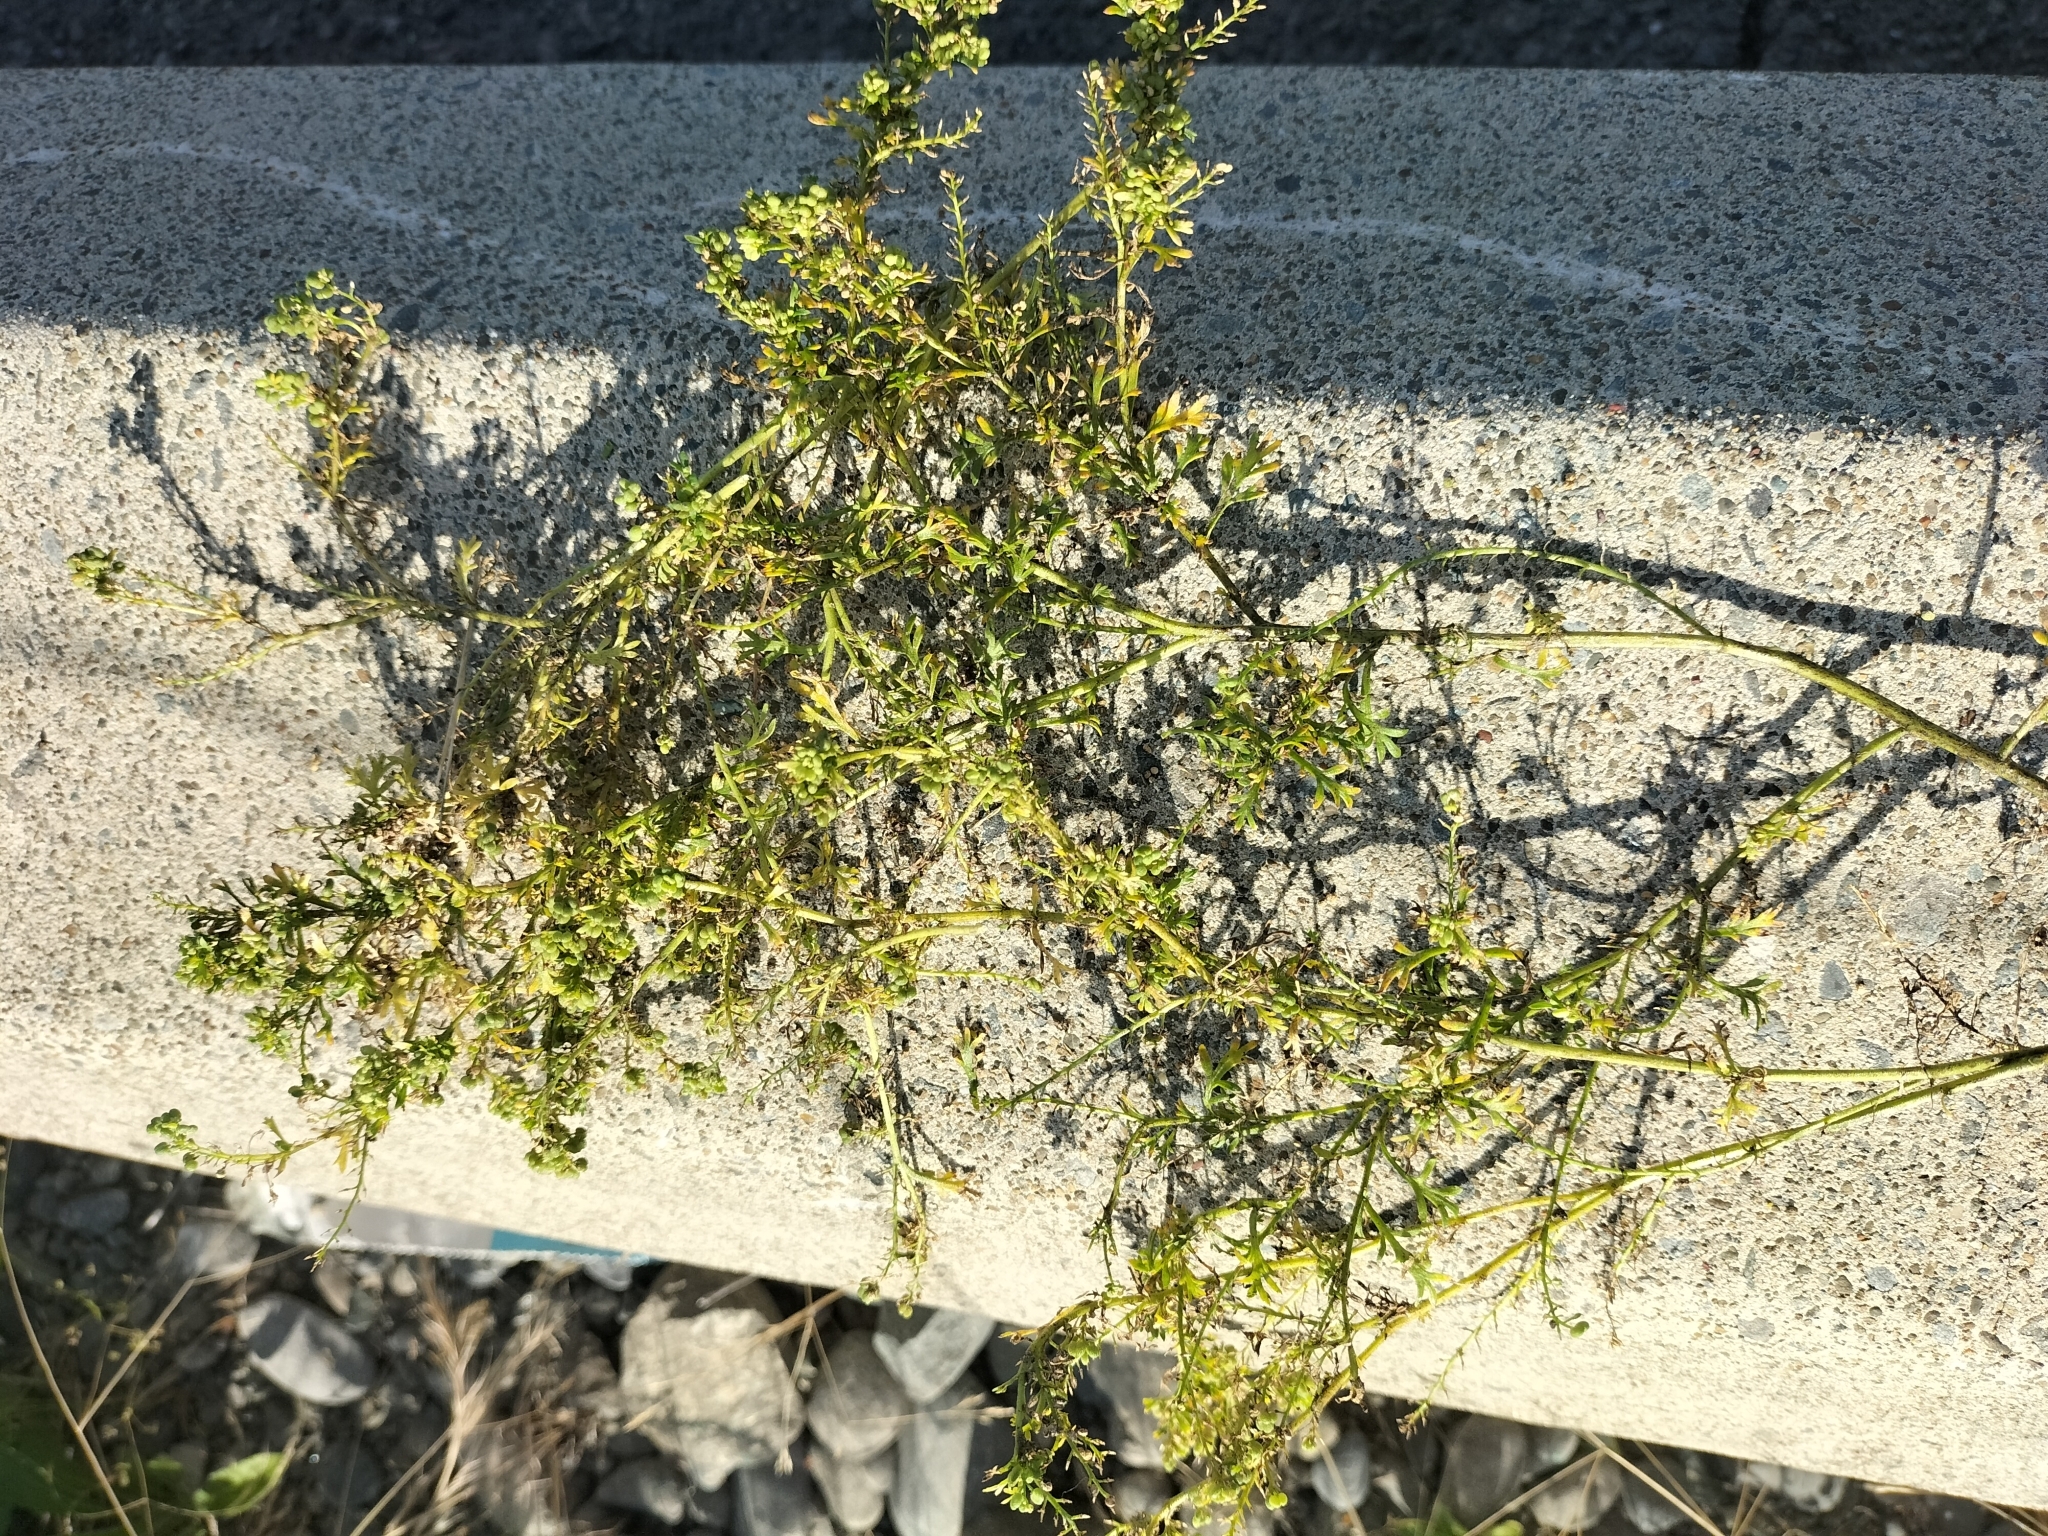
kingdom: Plantae
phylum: Tracheophyta
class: Magnoliopsida
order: Brassicales
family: Brassicaceae
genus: Lepidium
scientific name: Lepidium didymum
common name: Lesser swinecress
